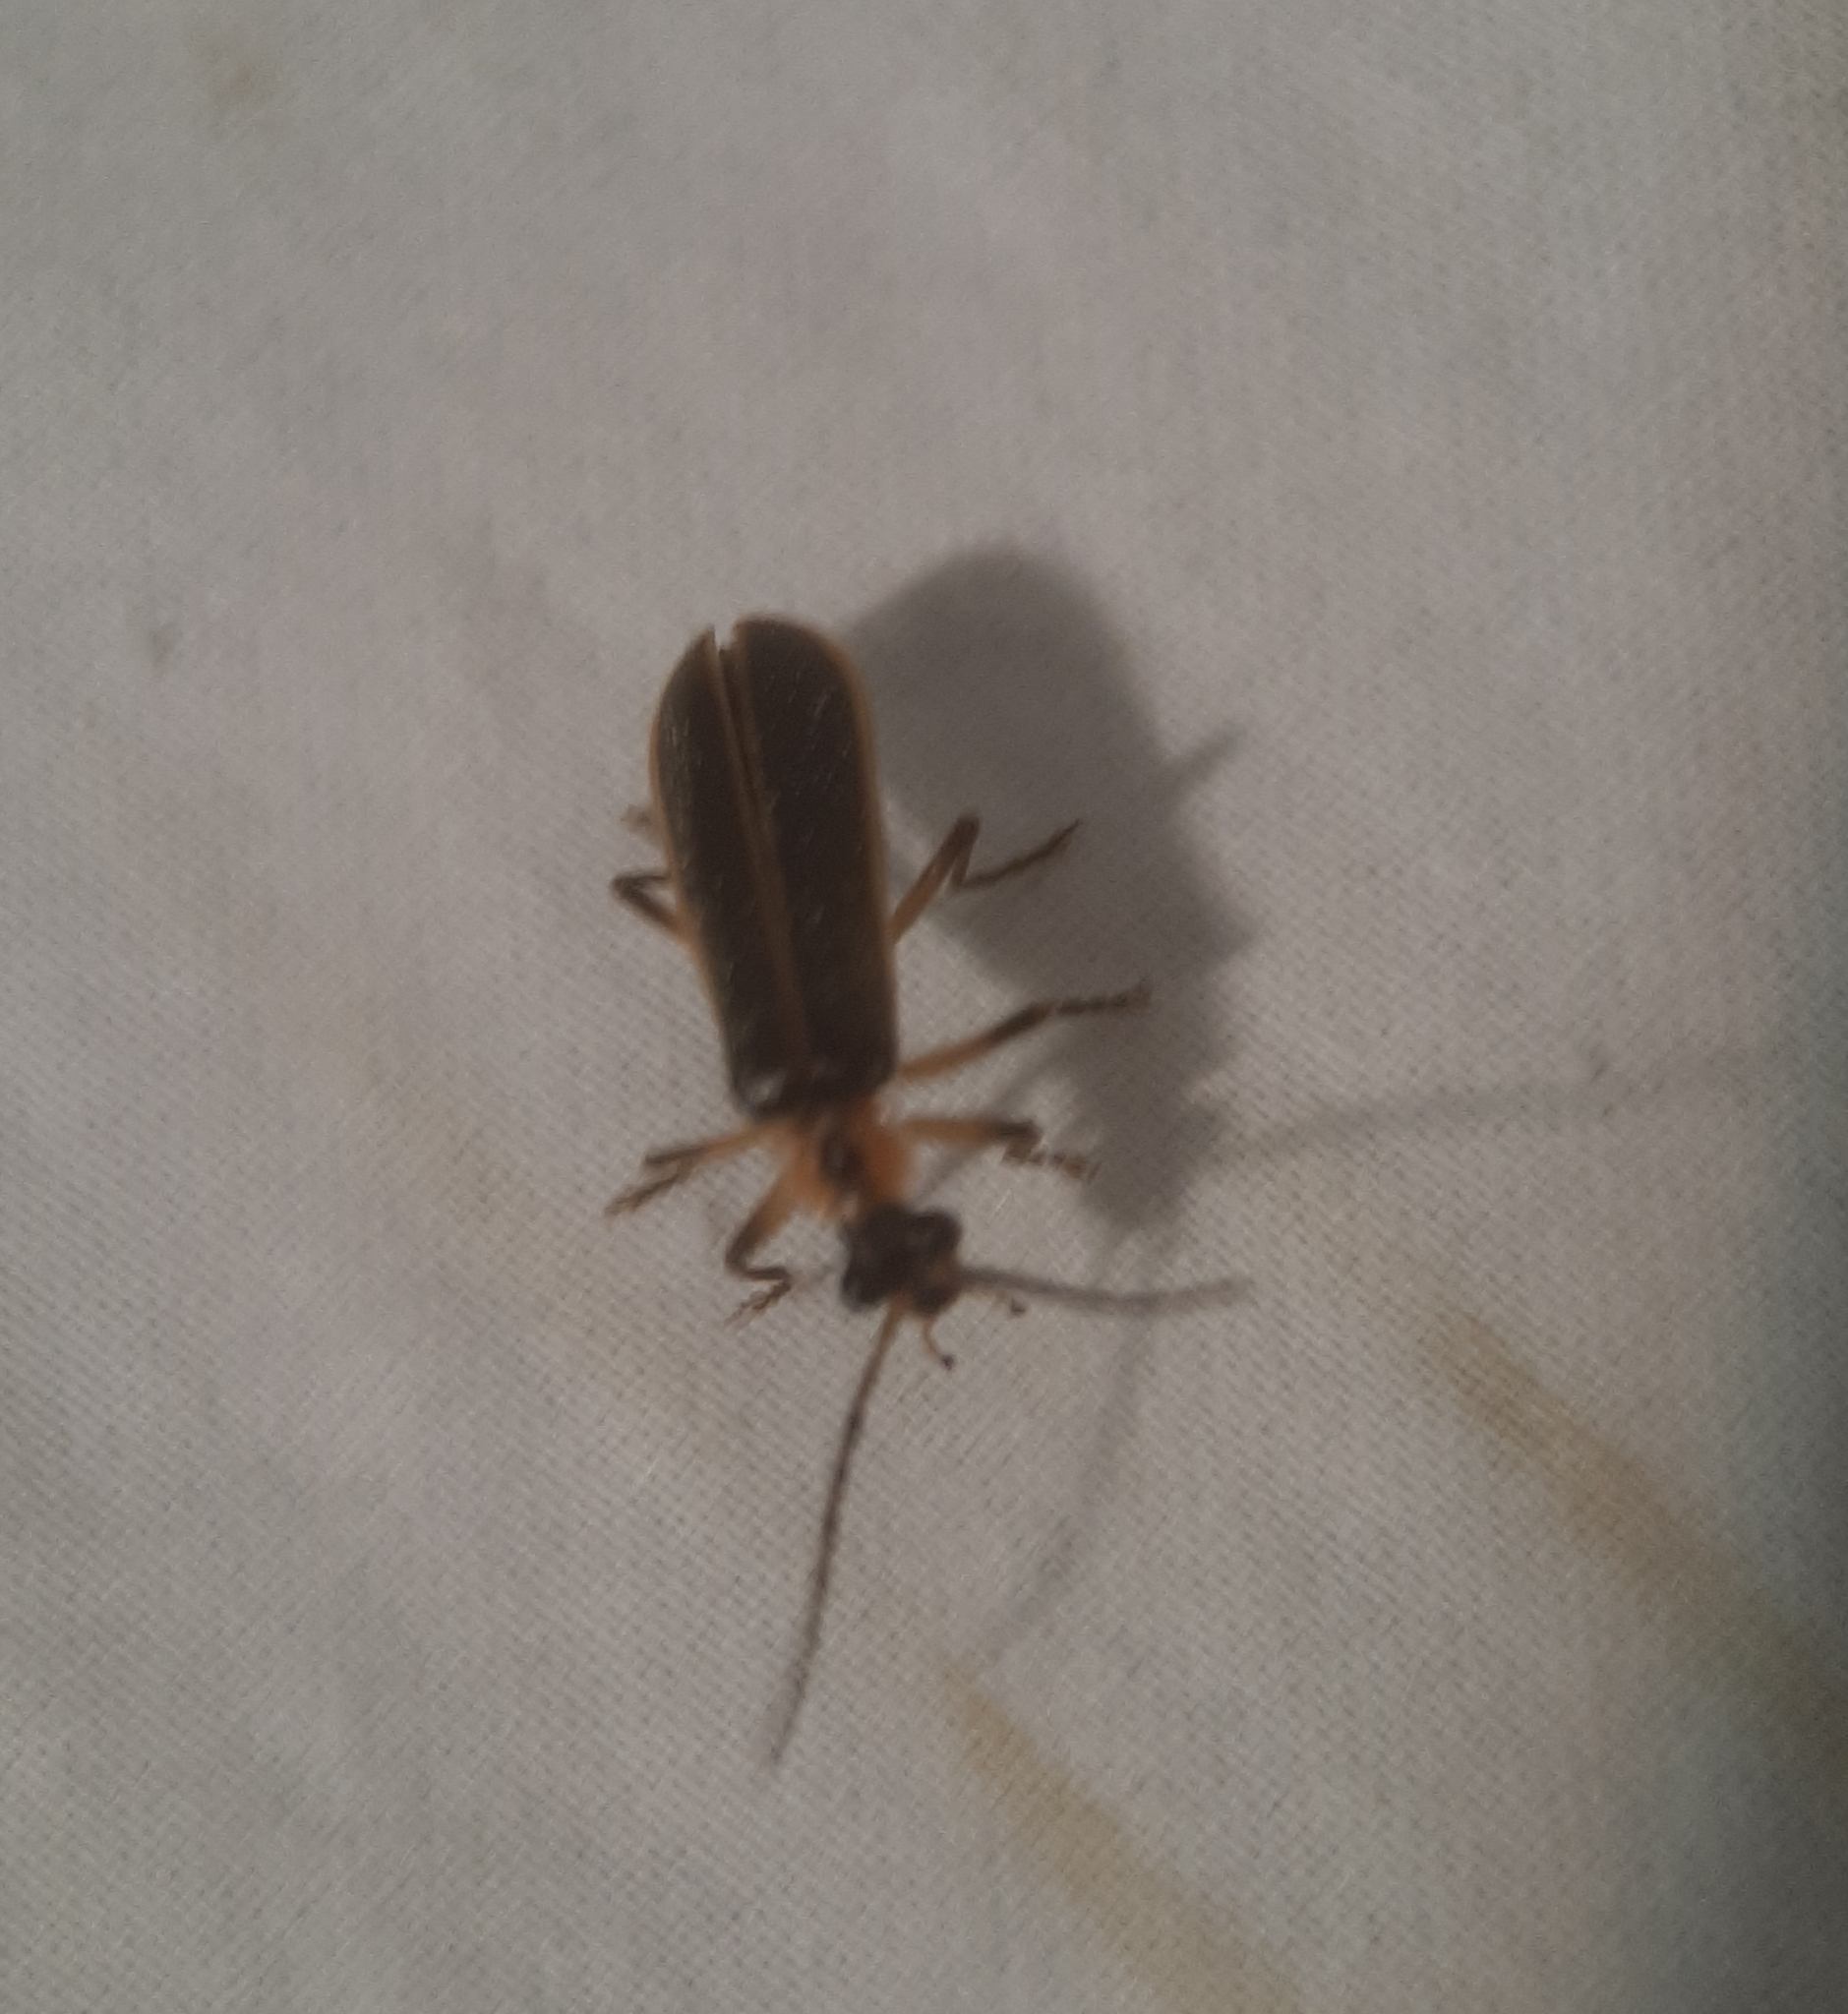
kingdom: Animalia
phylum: Arthropoda
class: Insecta
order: Coleoptera
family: Cantharidae
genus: Podabrus
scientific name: Podabrus basilaris
